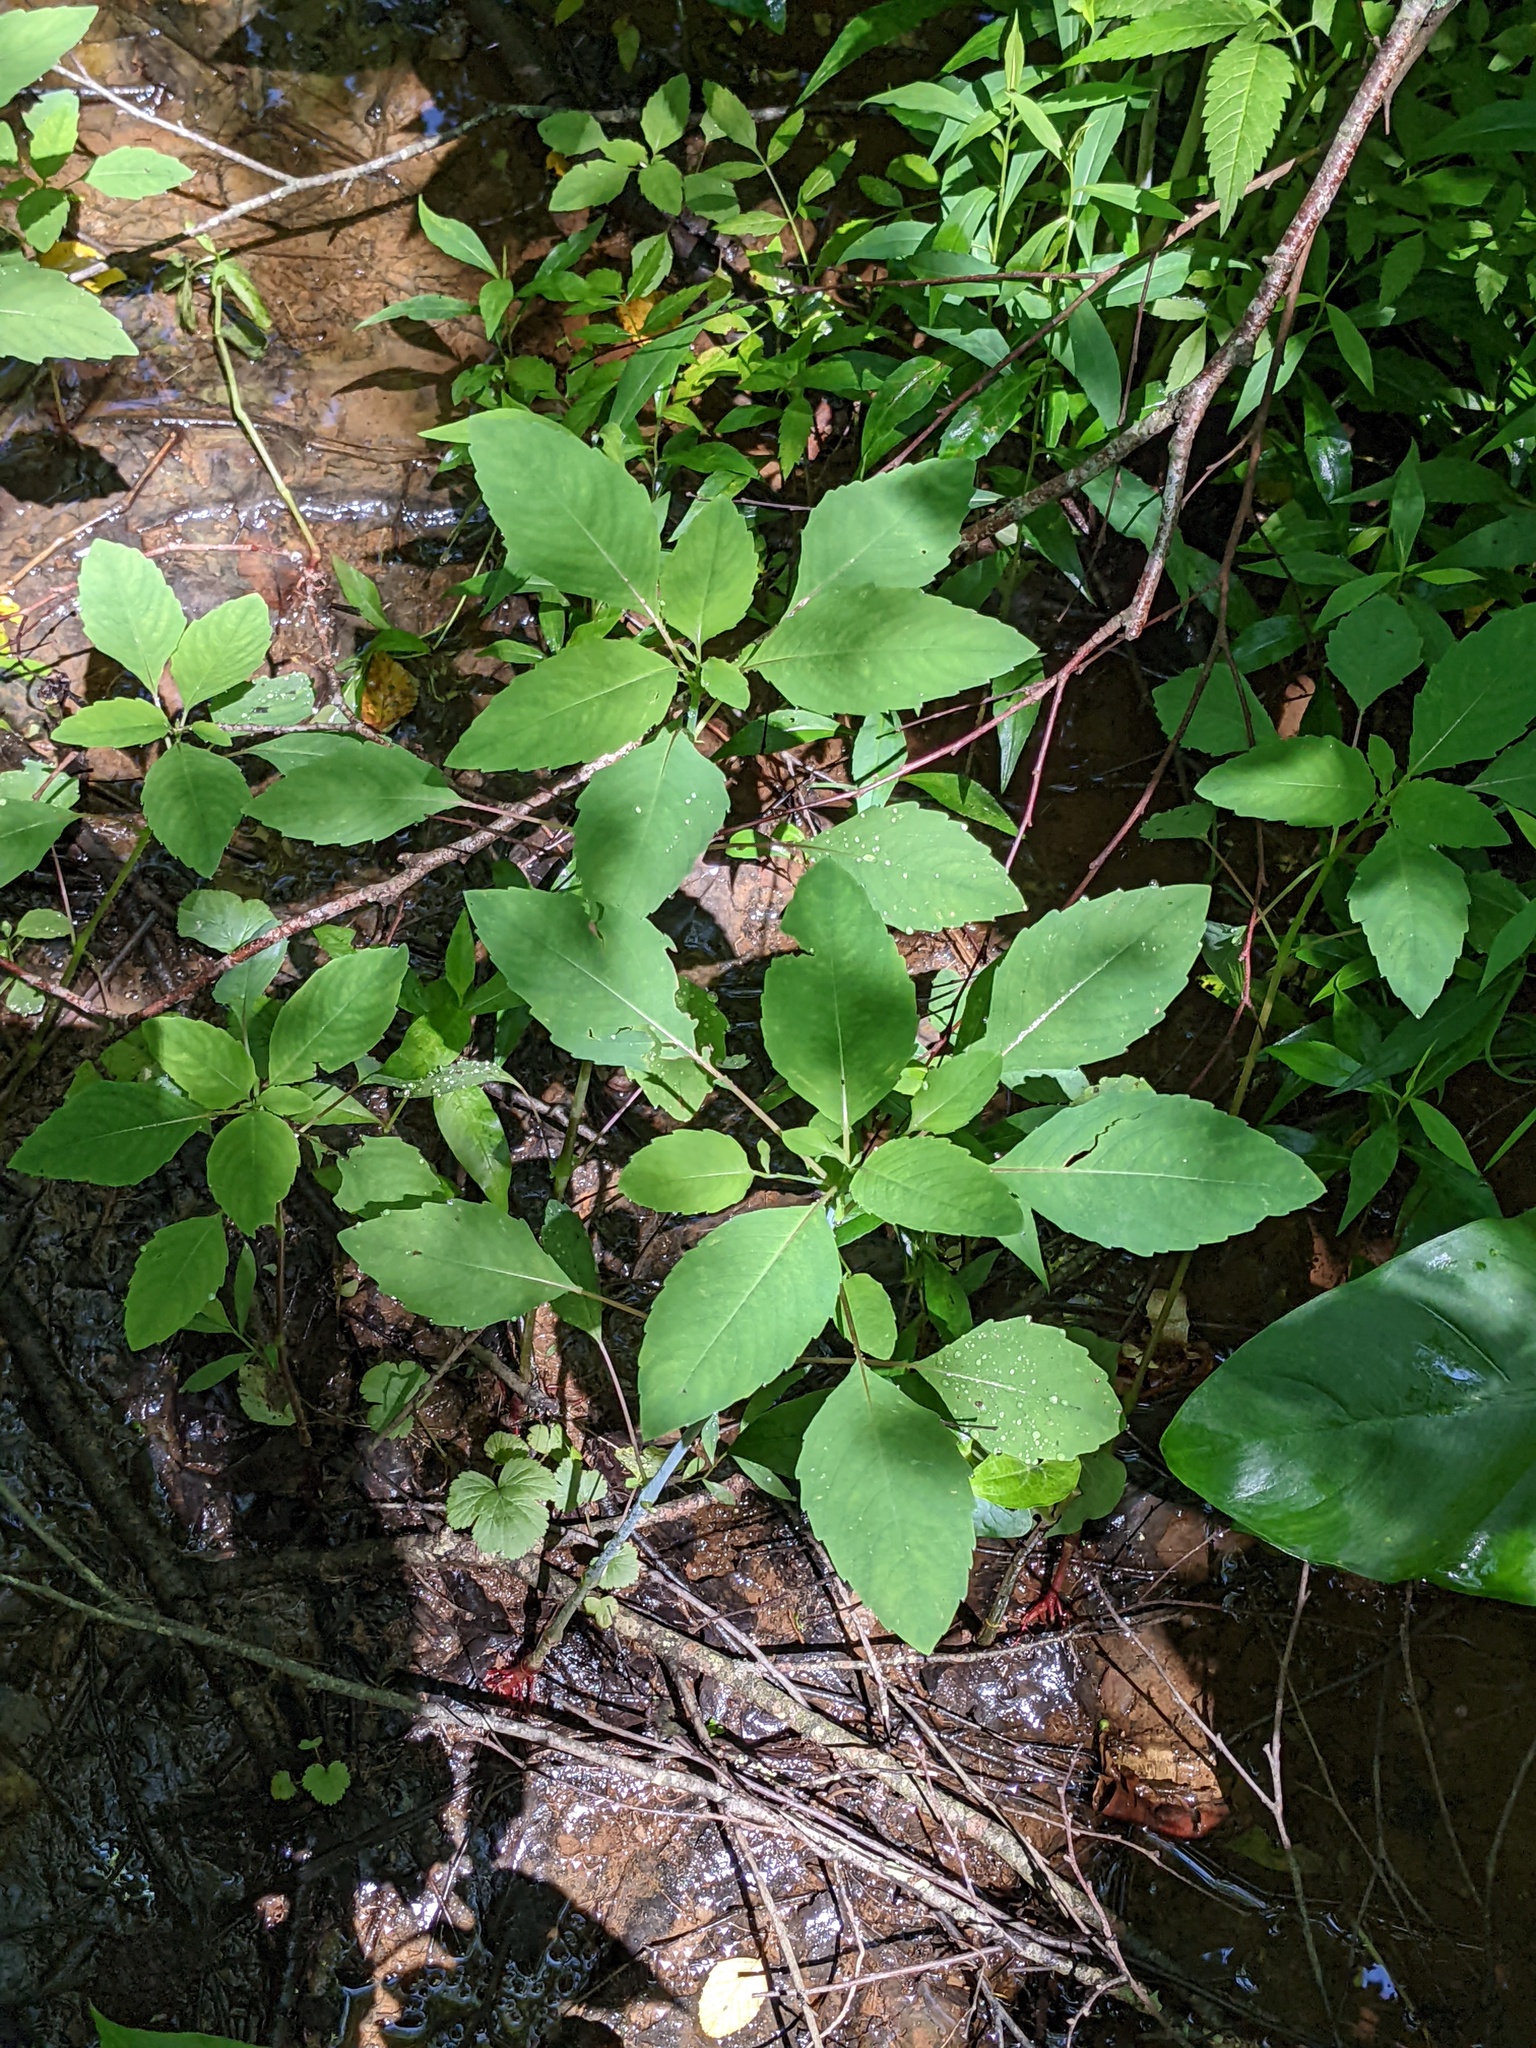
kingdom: Plantae
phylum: Tracheophyta
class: Magnoliopsida
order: Ericales
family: Balsaminaceae
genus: Impatiens
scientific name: Impatiens capensis
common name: Orange balsam
